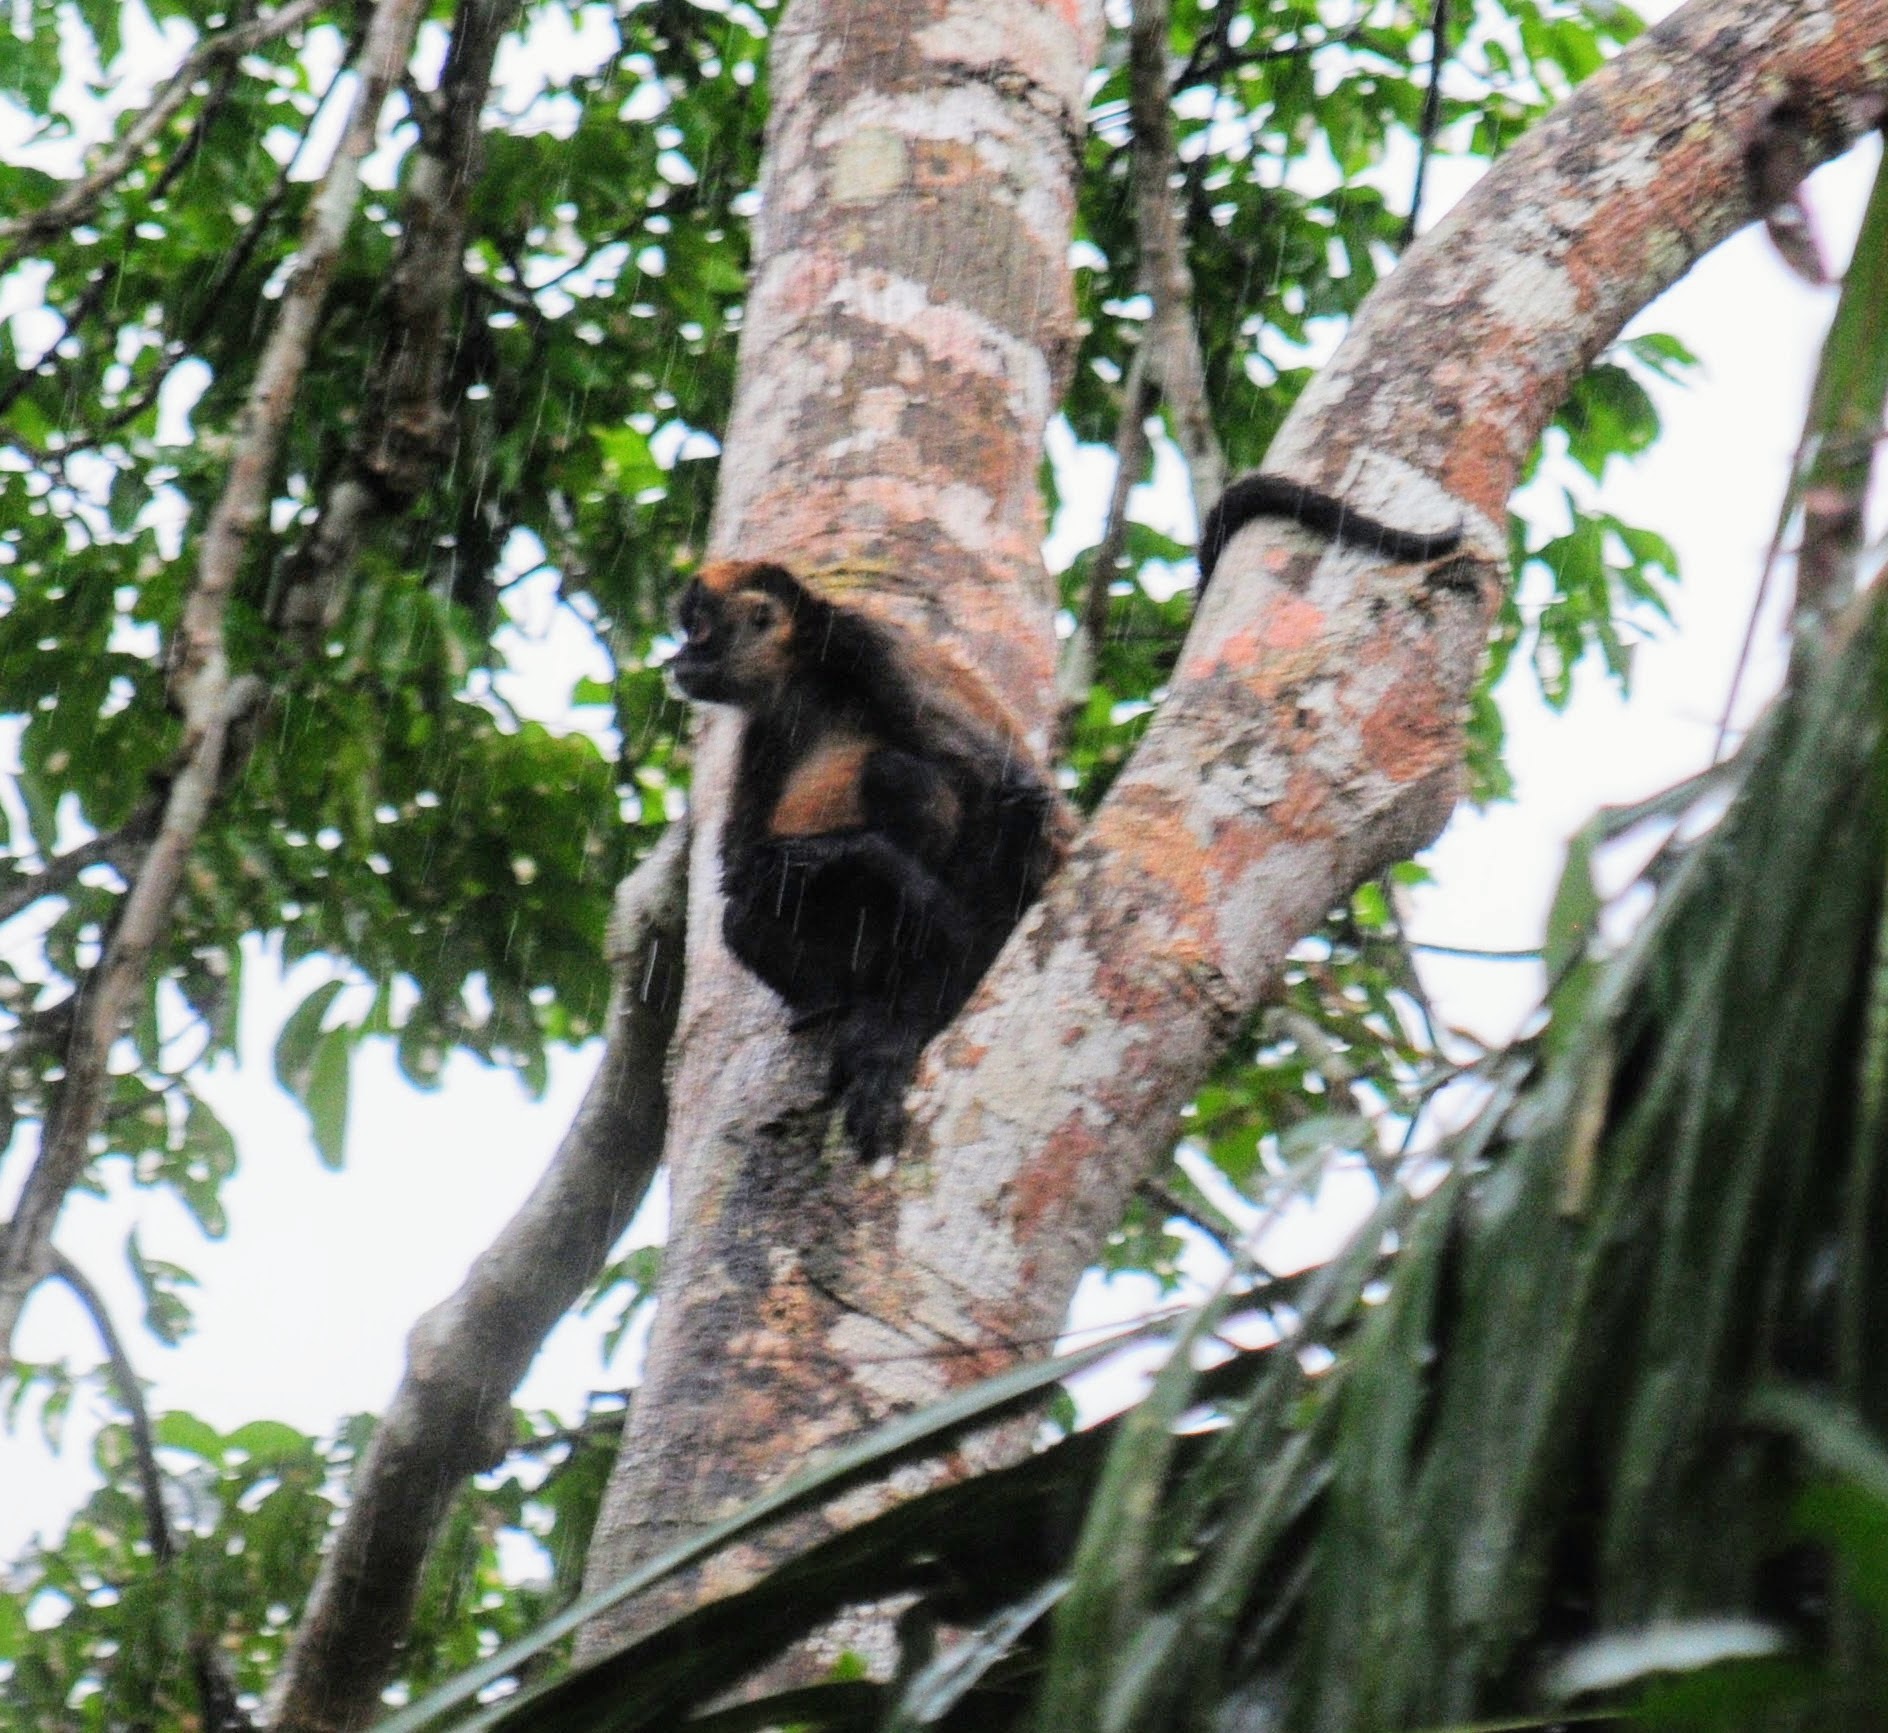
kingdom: Animalia
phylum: Chordata
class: Mammalia
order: Primates
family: Atelidae
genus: Ateles
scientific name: Ateles geoffroyi
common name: Black-handed spider monkey
